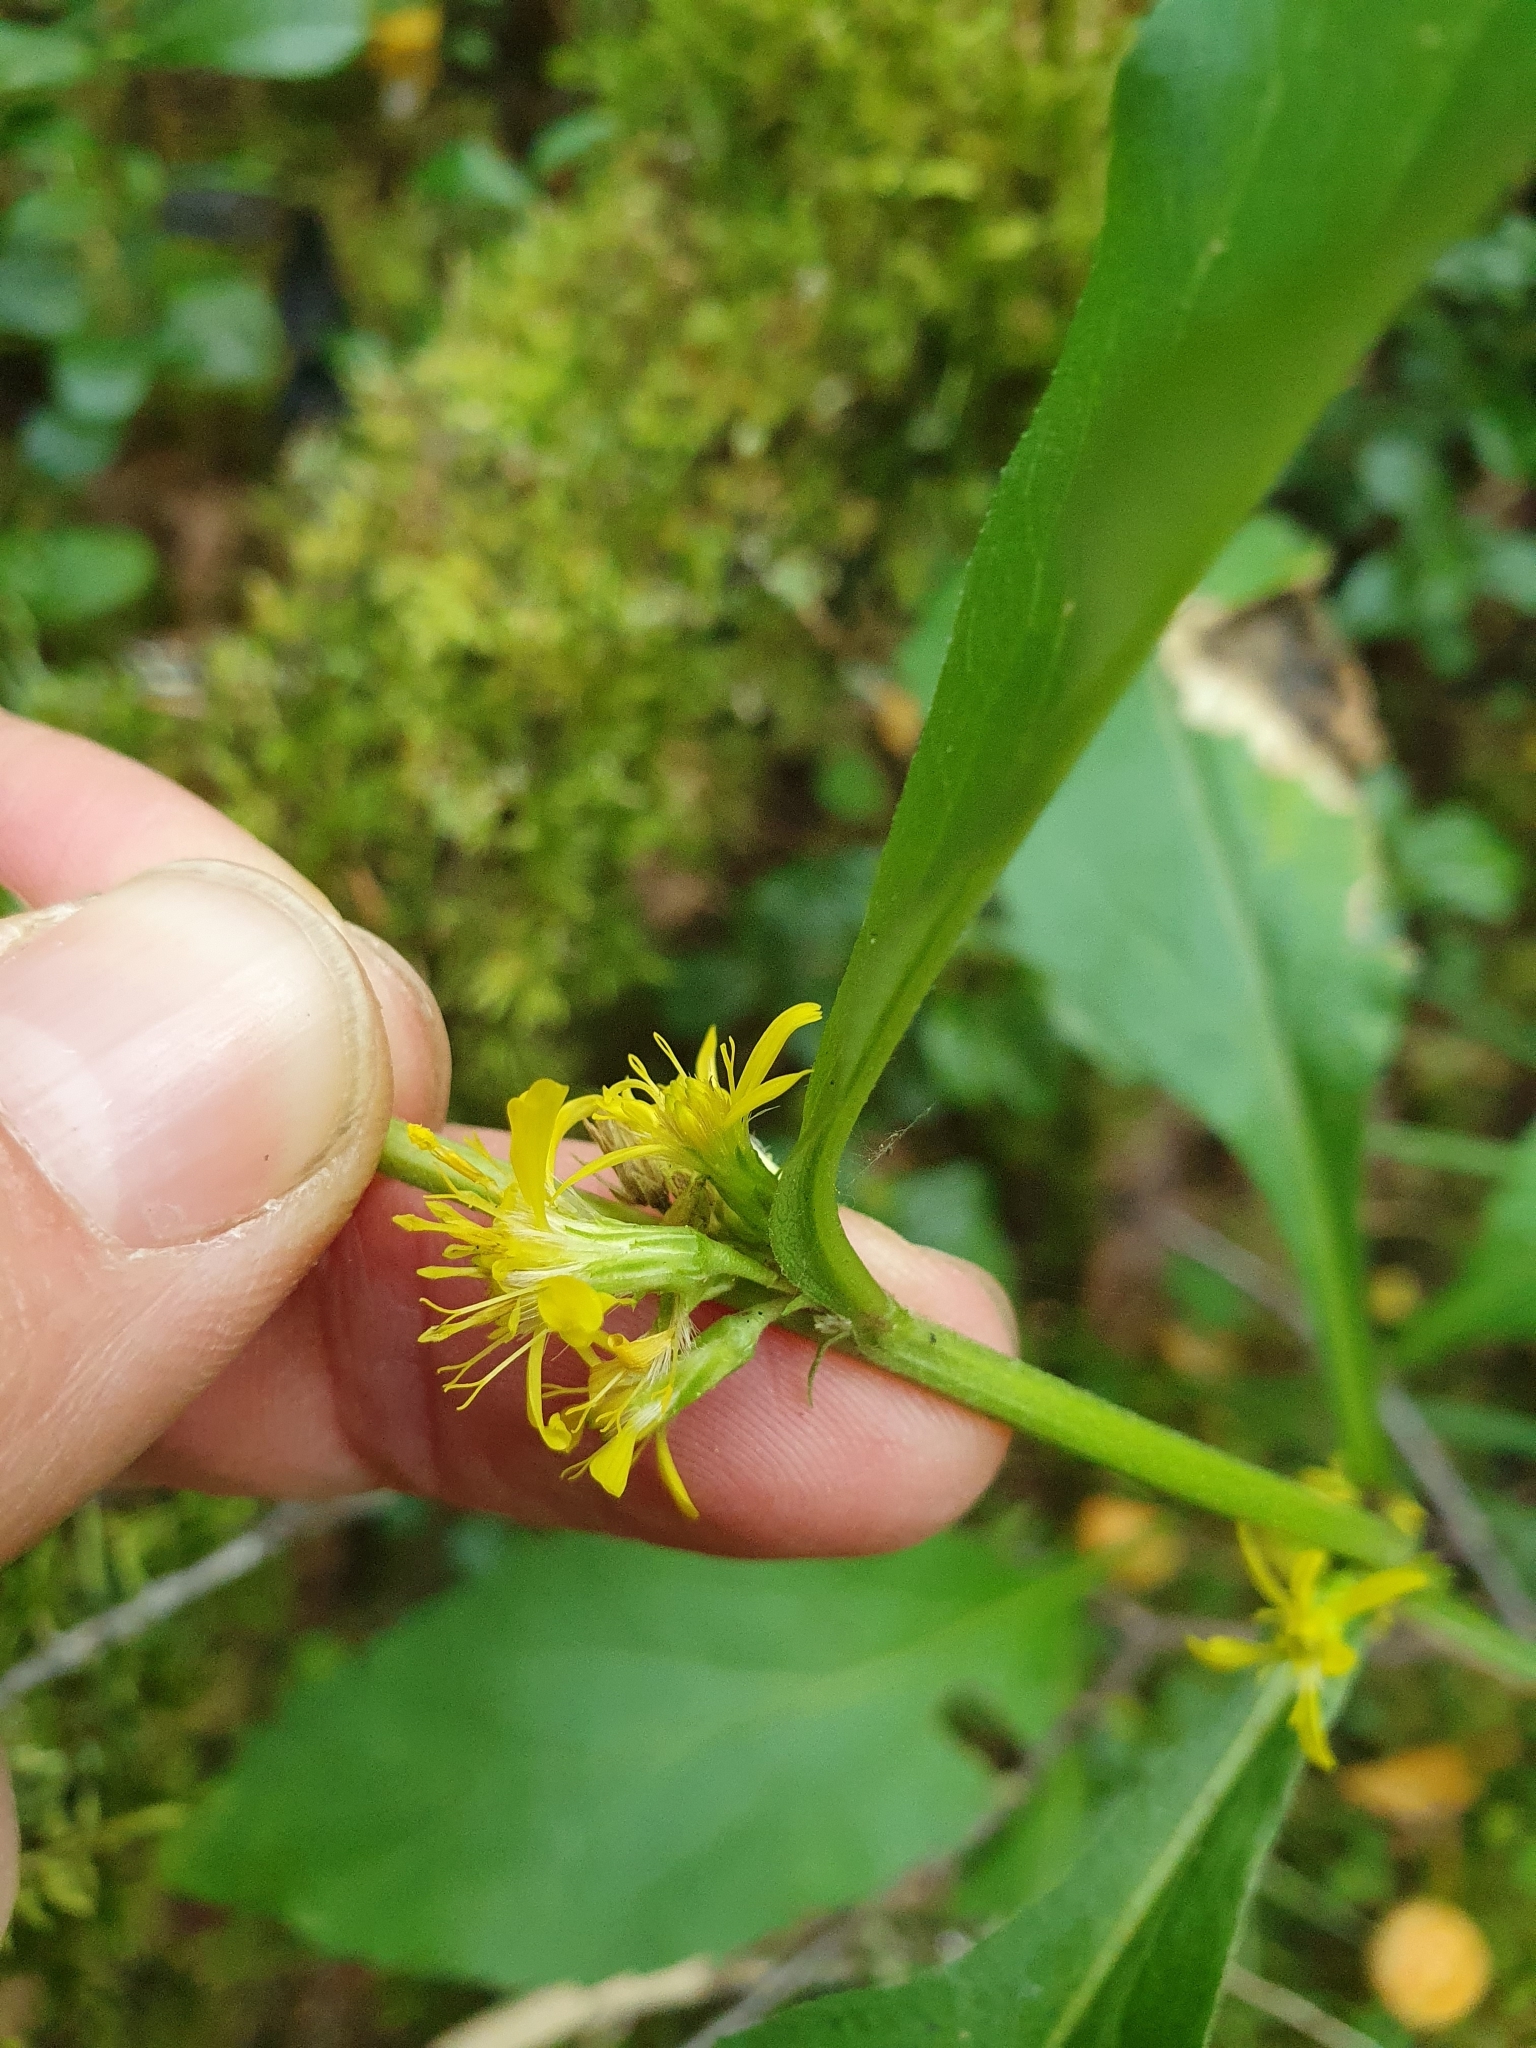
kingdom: Plantae
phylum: Tracheophyta
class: Magnoliopsida
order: Asterales
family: Asteraceae
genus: Solidago
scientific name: Solidago virgaurea
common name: Goldenrod
